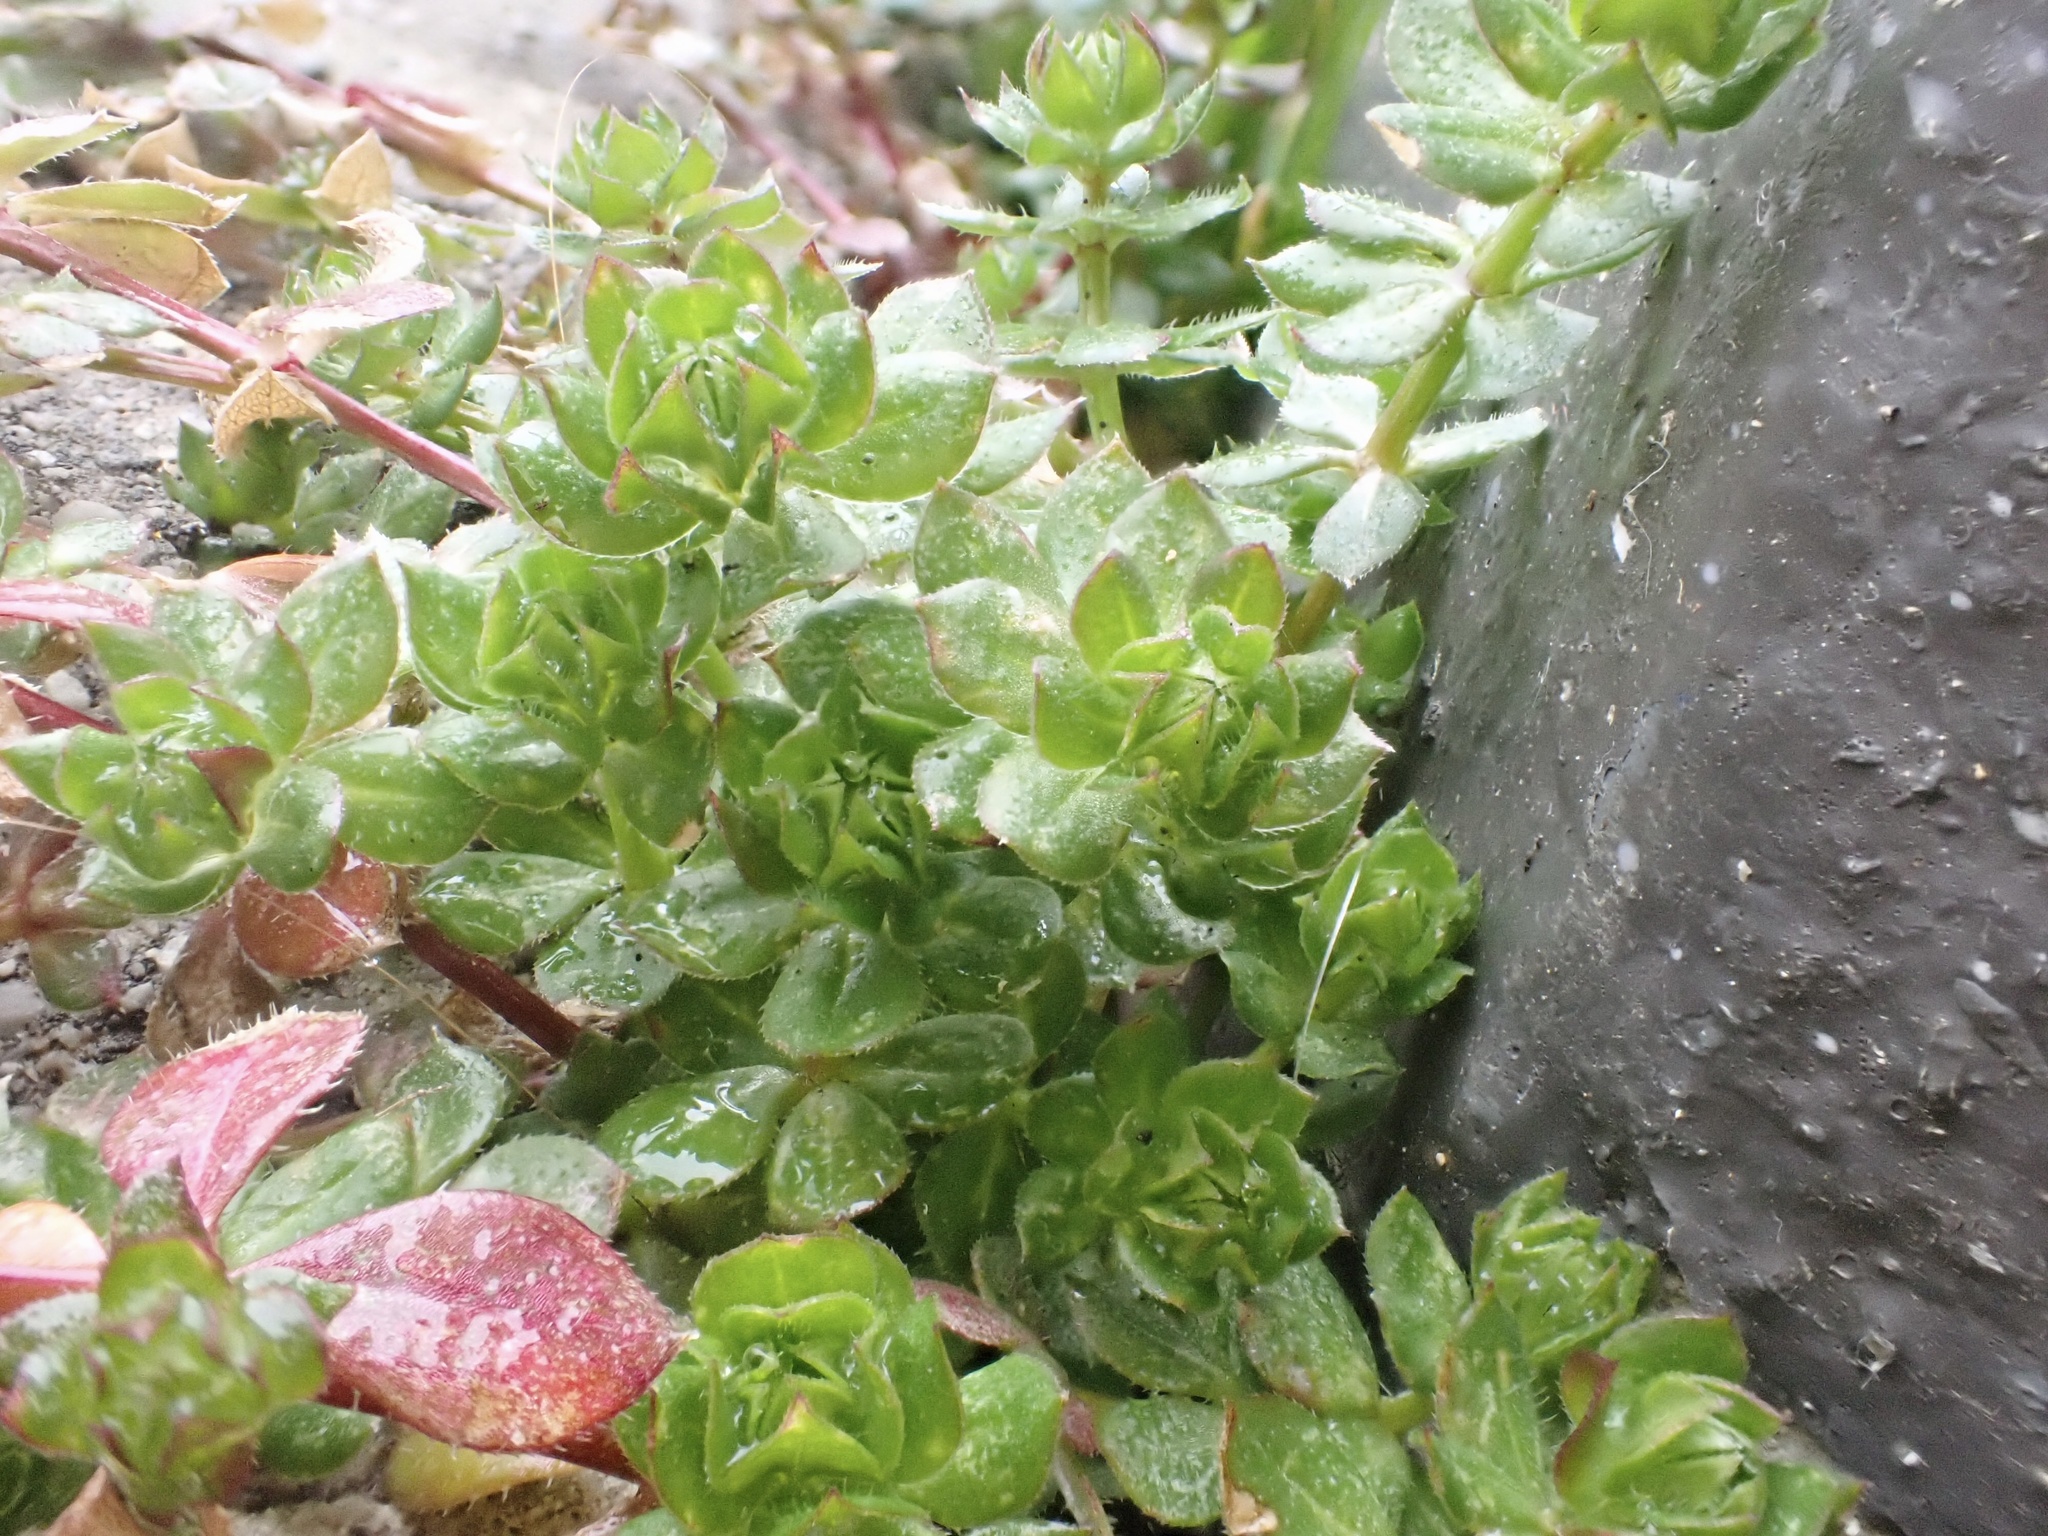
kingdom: Plantae
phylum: Tracheophyta
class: Magnoliopsida
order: Gentianales
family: Rubiaceae
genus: Sherardia
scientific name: Sherardia arvensis
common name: Field madder
